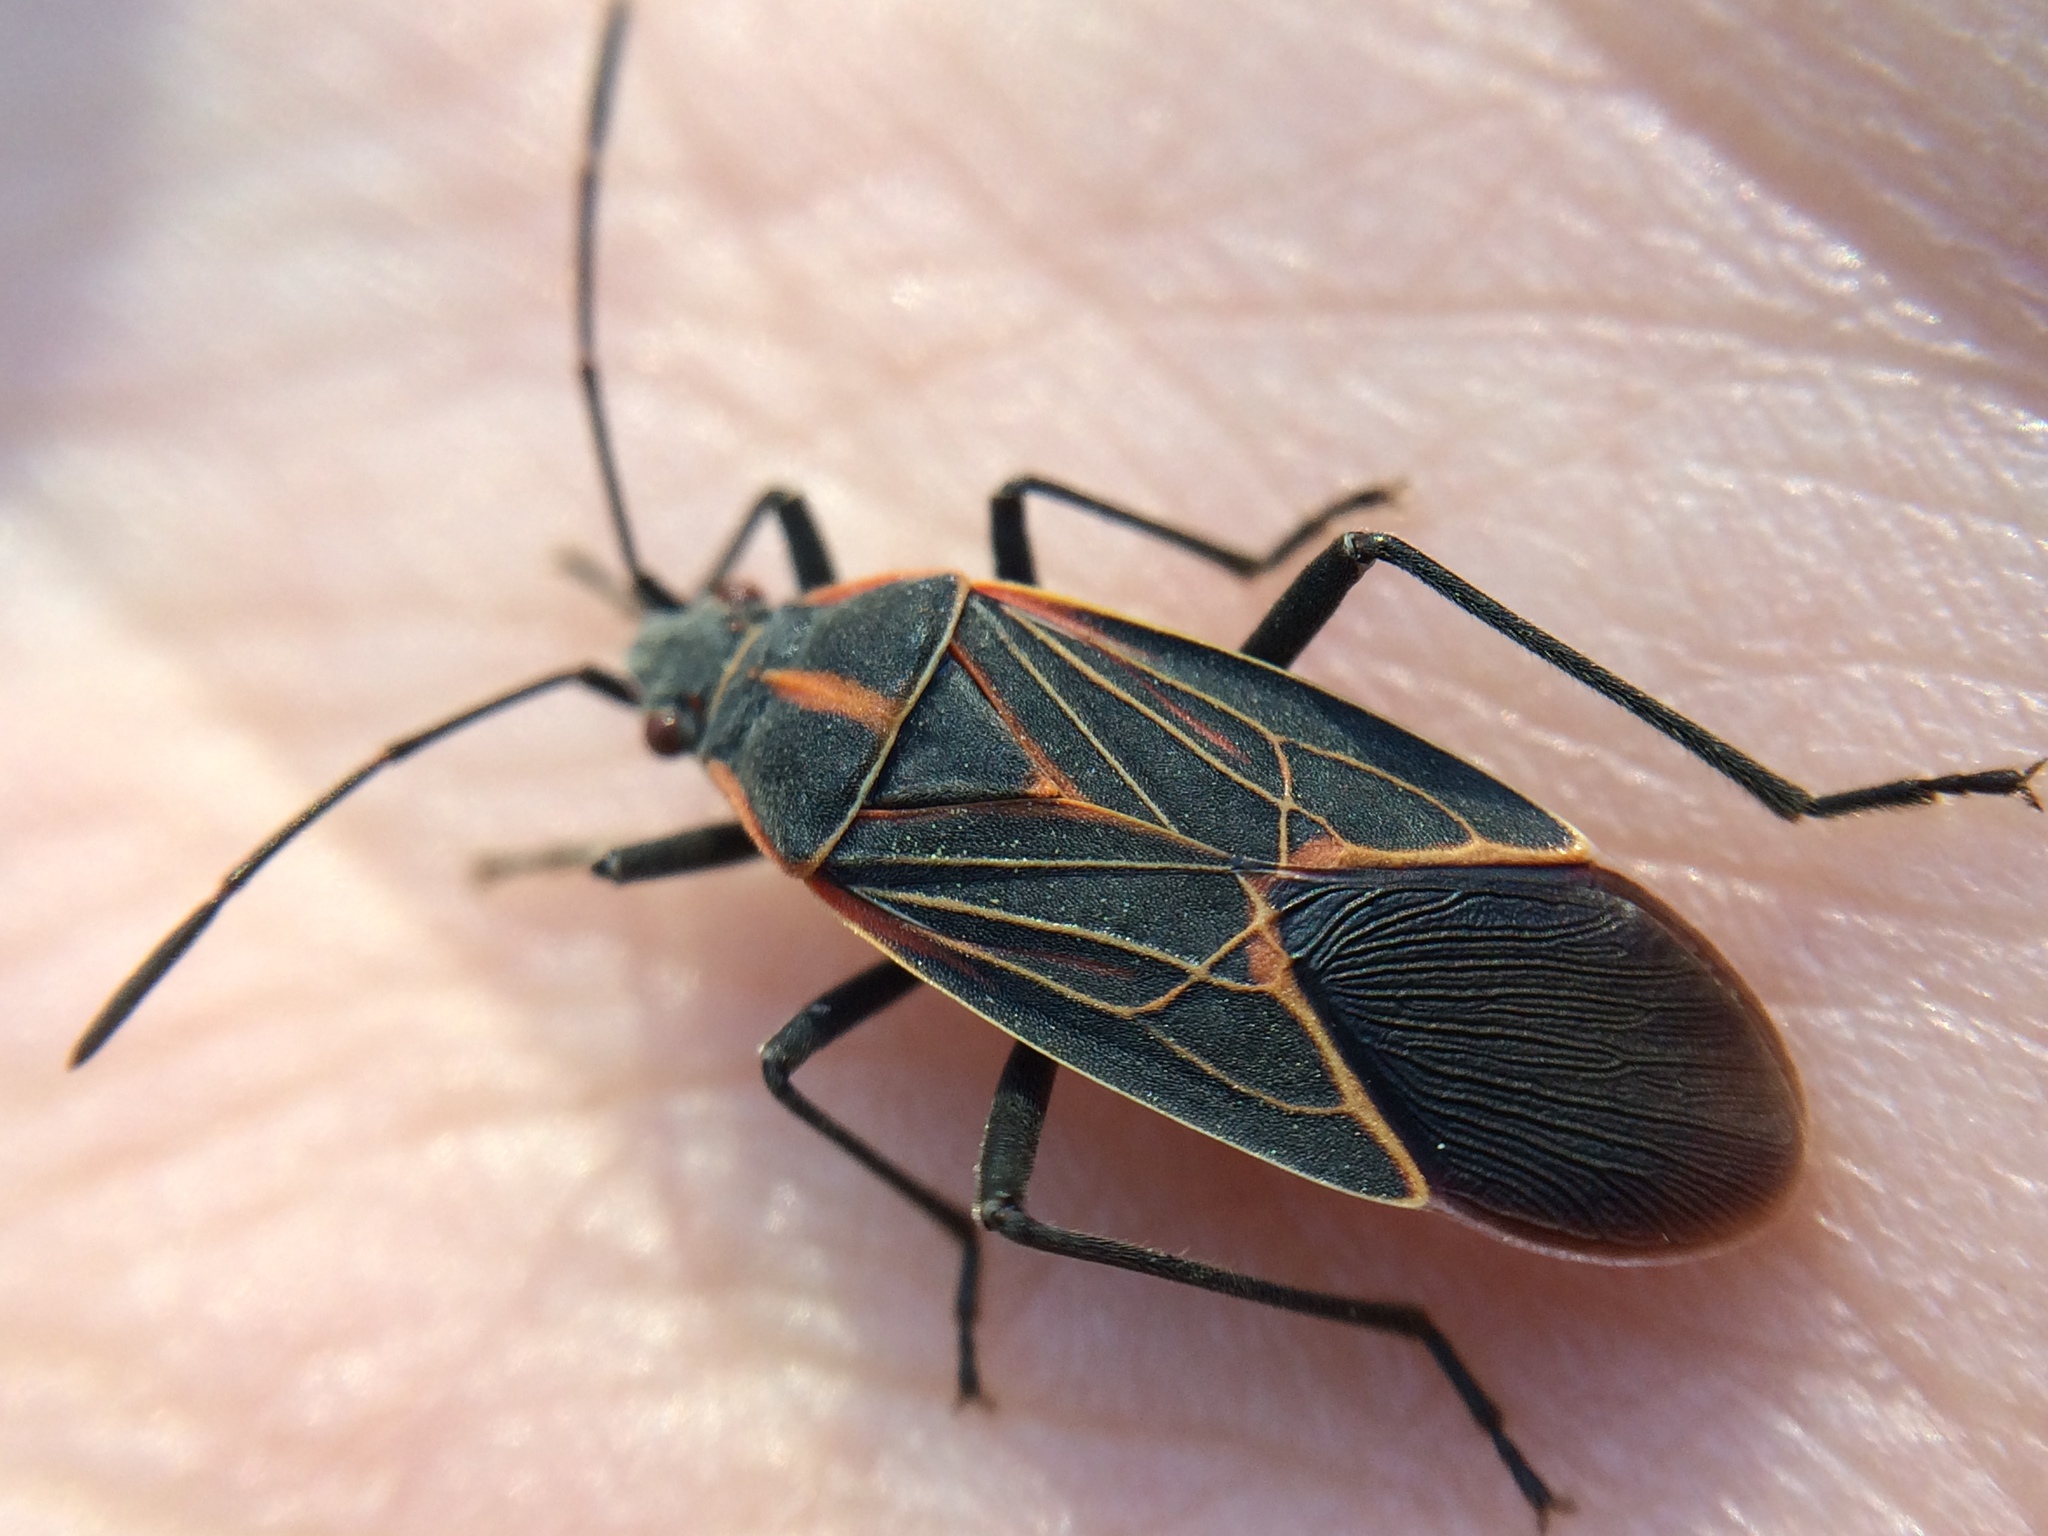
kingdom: Animalia
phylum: Arthropoda
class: Insecta
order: Hemiptera
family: Rhopalidae
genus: Boisea
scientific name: Boisea rubrolineata
